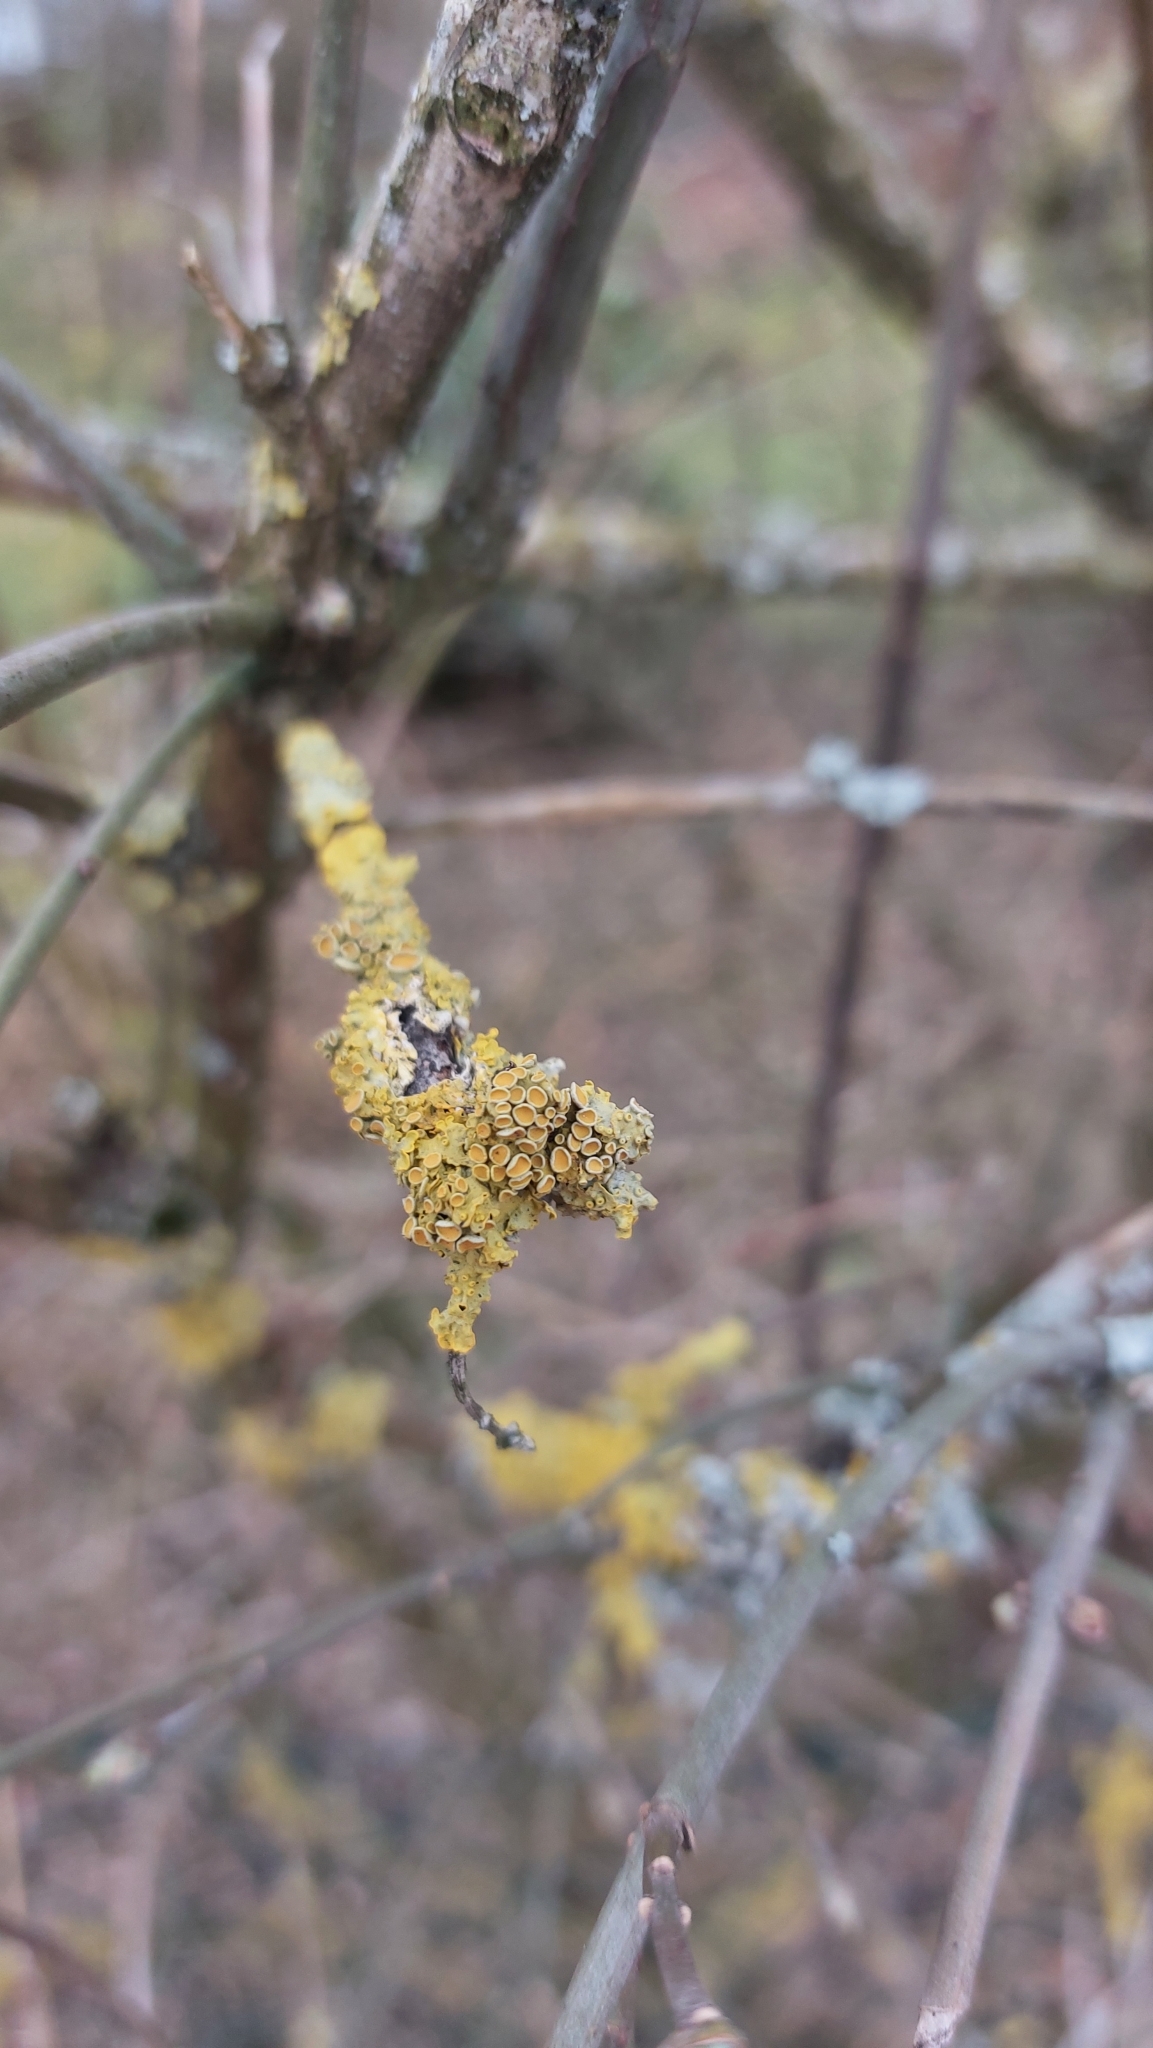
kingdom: Fungi
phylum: Ascomycota
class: Lecanoromycetes
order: Teloschistales
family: Teloschistaceae
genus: Xanthoria
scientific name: Xanthoria parietina
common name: Common orange lichen
